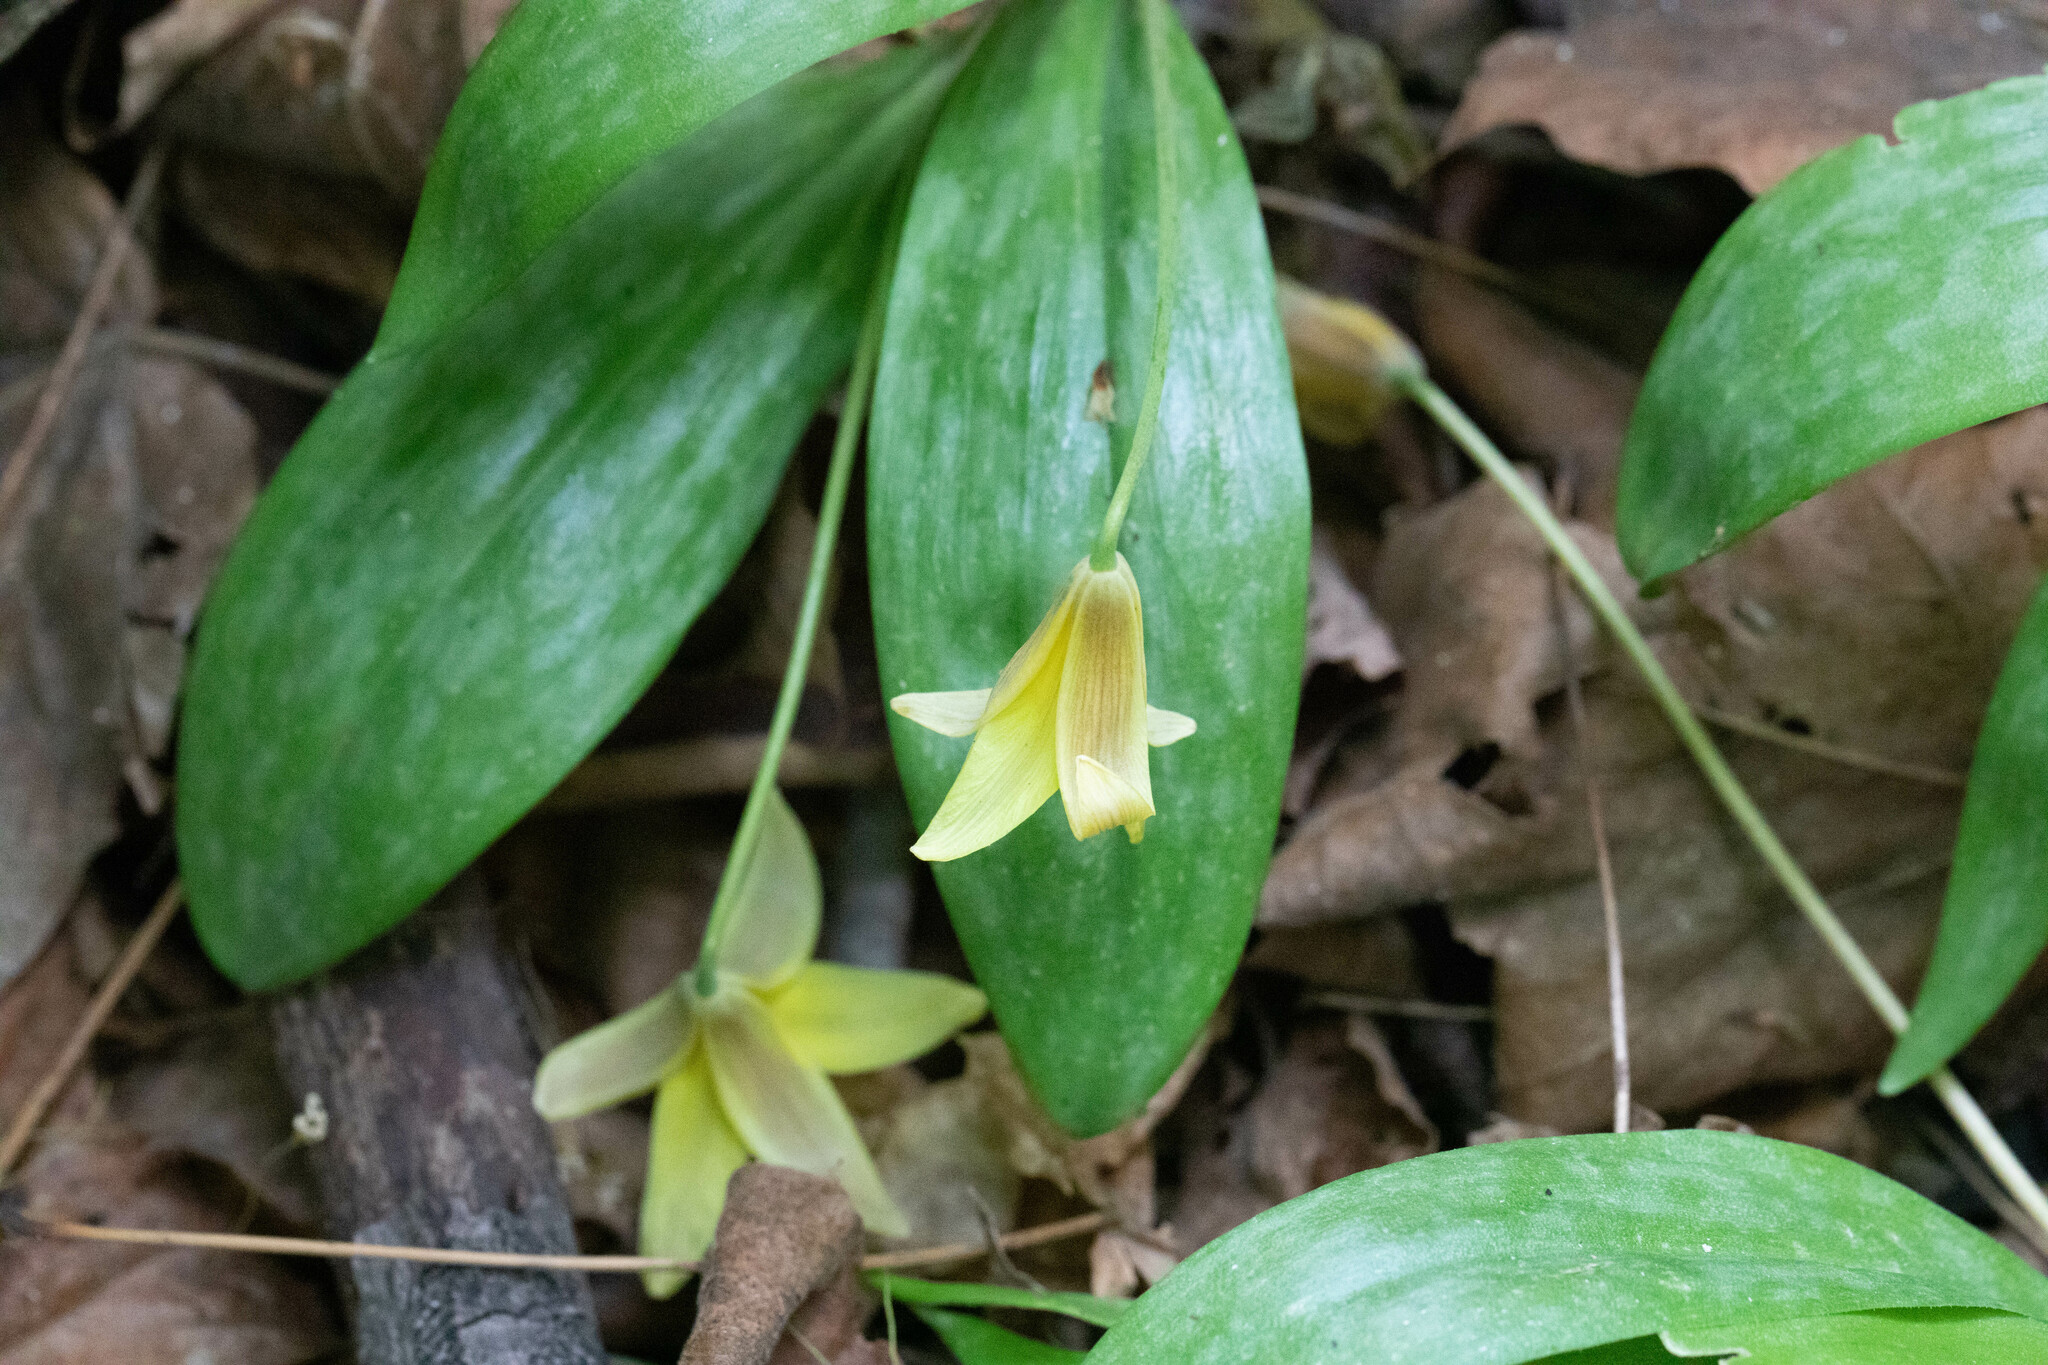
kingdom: Plantae
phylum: Tracheophyta
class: Liliopsida
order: Liliales
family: Liliaceae
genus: Erythronium
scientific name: Erythronium americanum
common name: Yellow adder's-tongue
